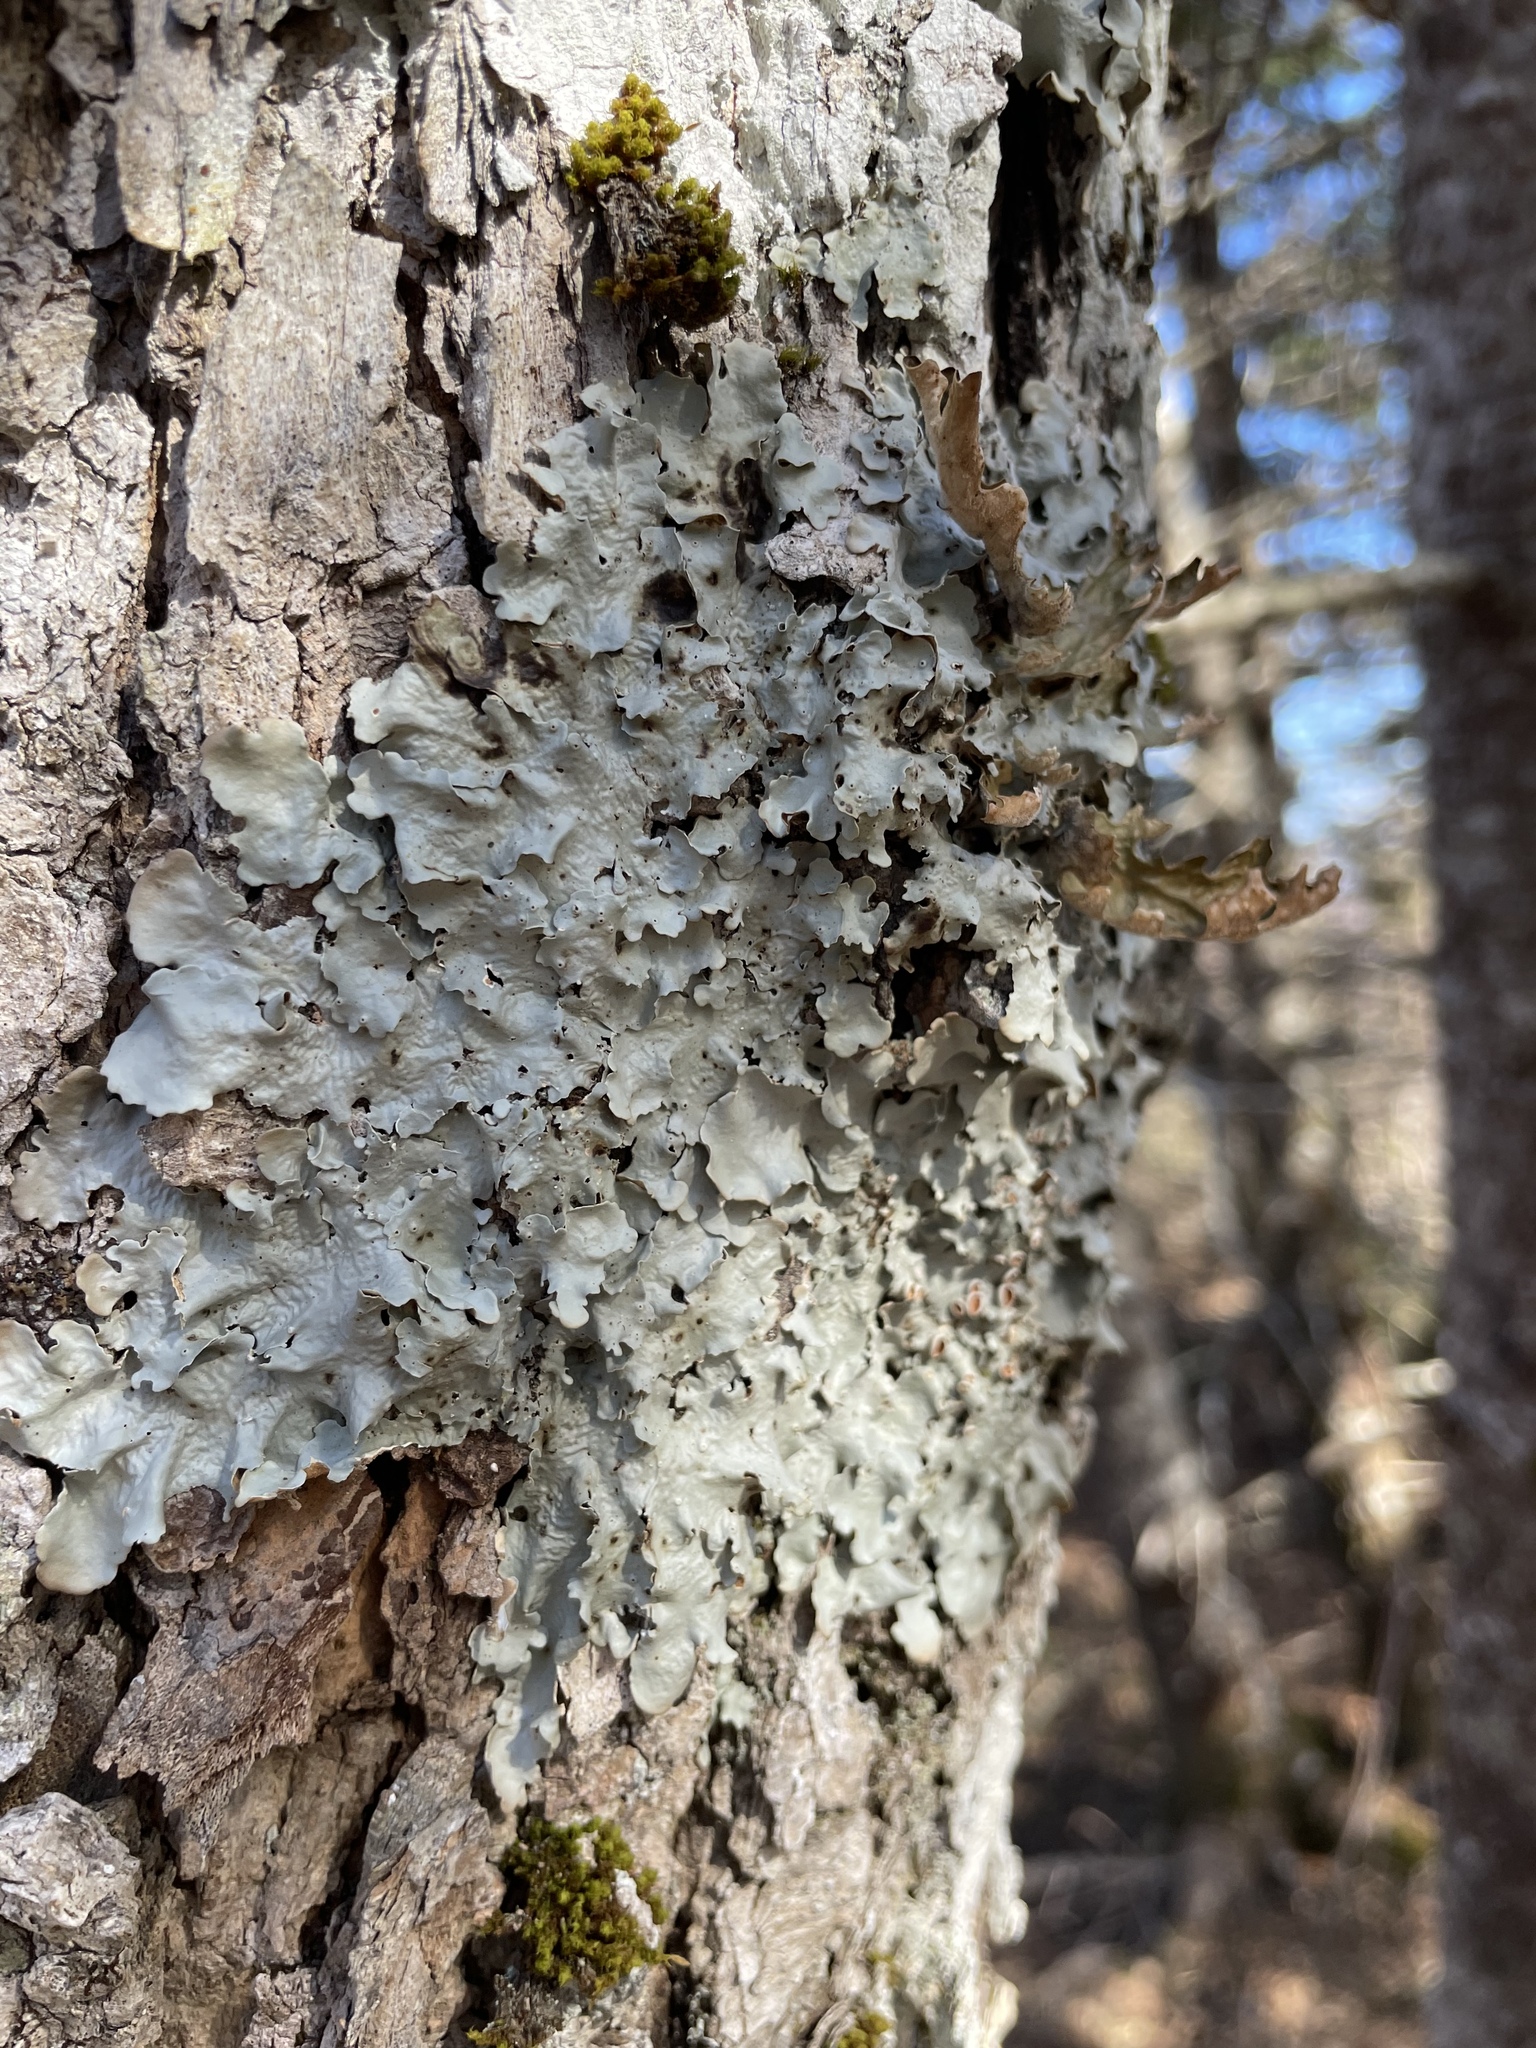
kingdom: Fungi
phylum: Ascomycota
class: Lecanoromycetes
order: Peltigerales
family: Lobariaceae
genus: Ricasolia
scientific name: Ricasolia quercizans
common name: Smooth lungwort
